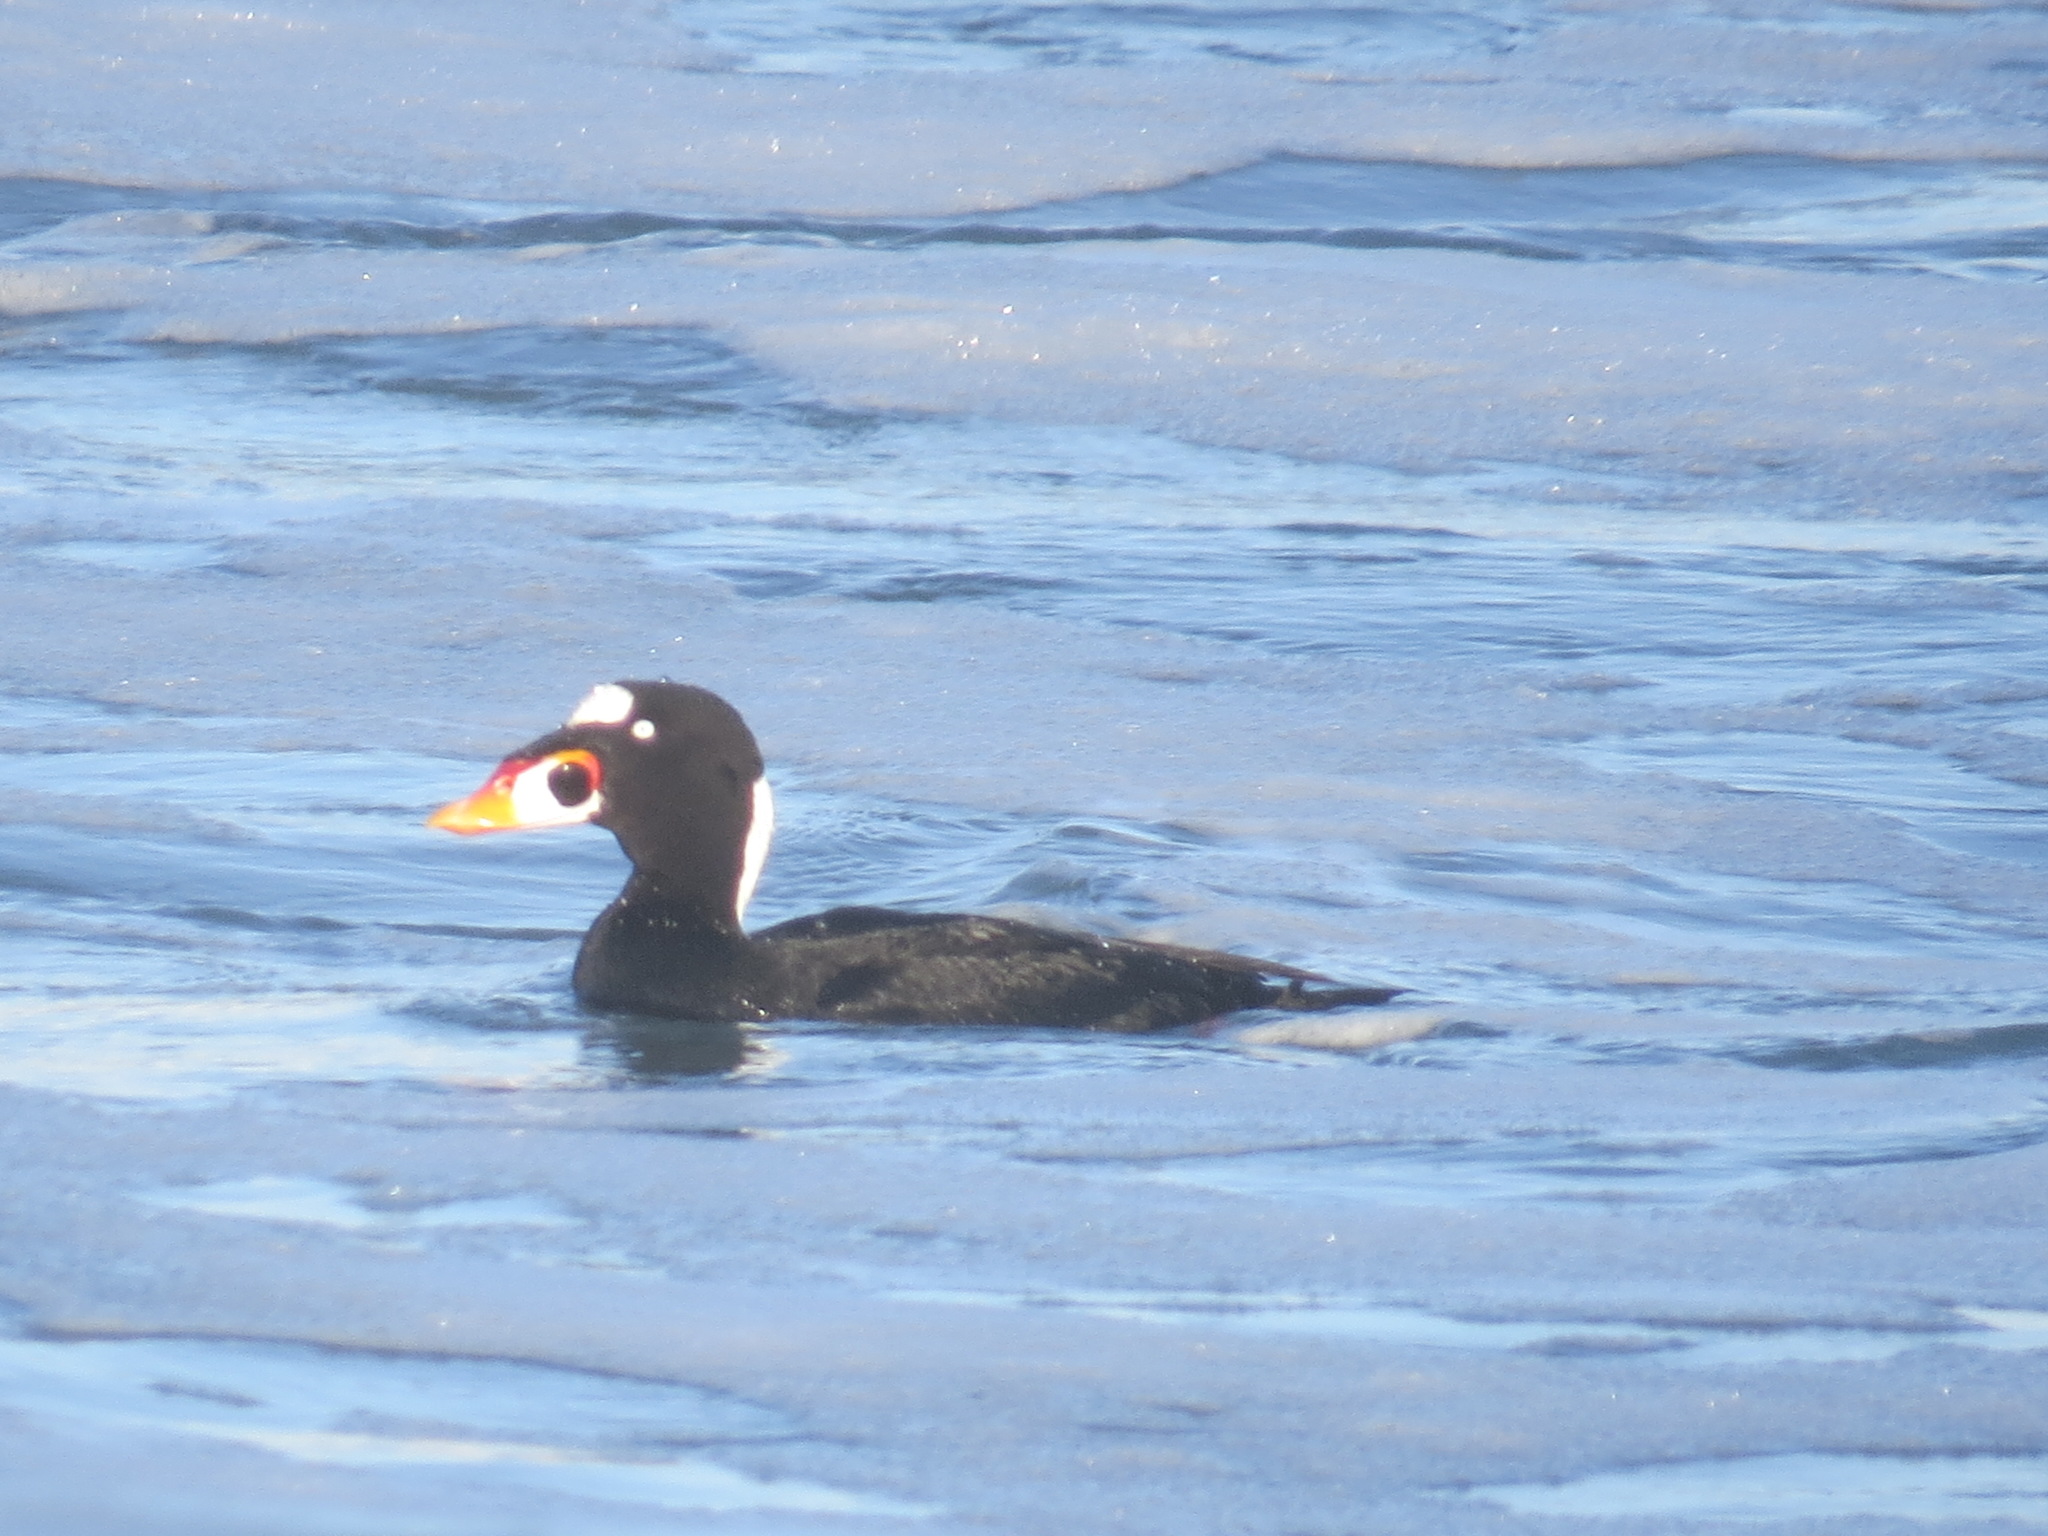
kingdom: Animalia
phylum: Chordata
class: Aves
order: Anseriformes
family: Anatidae
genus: Melanitta
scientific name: Melanitta perspicillata
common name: Surf scoter
